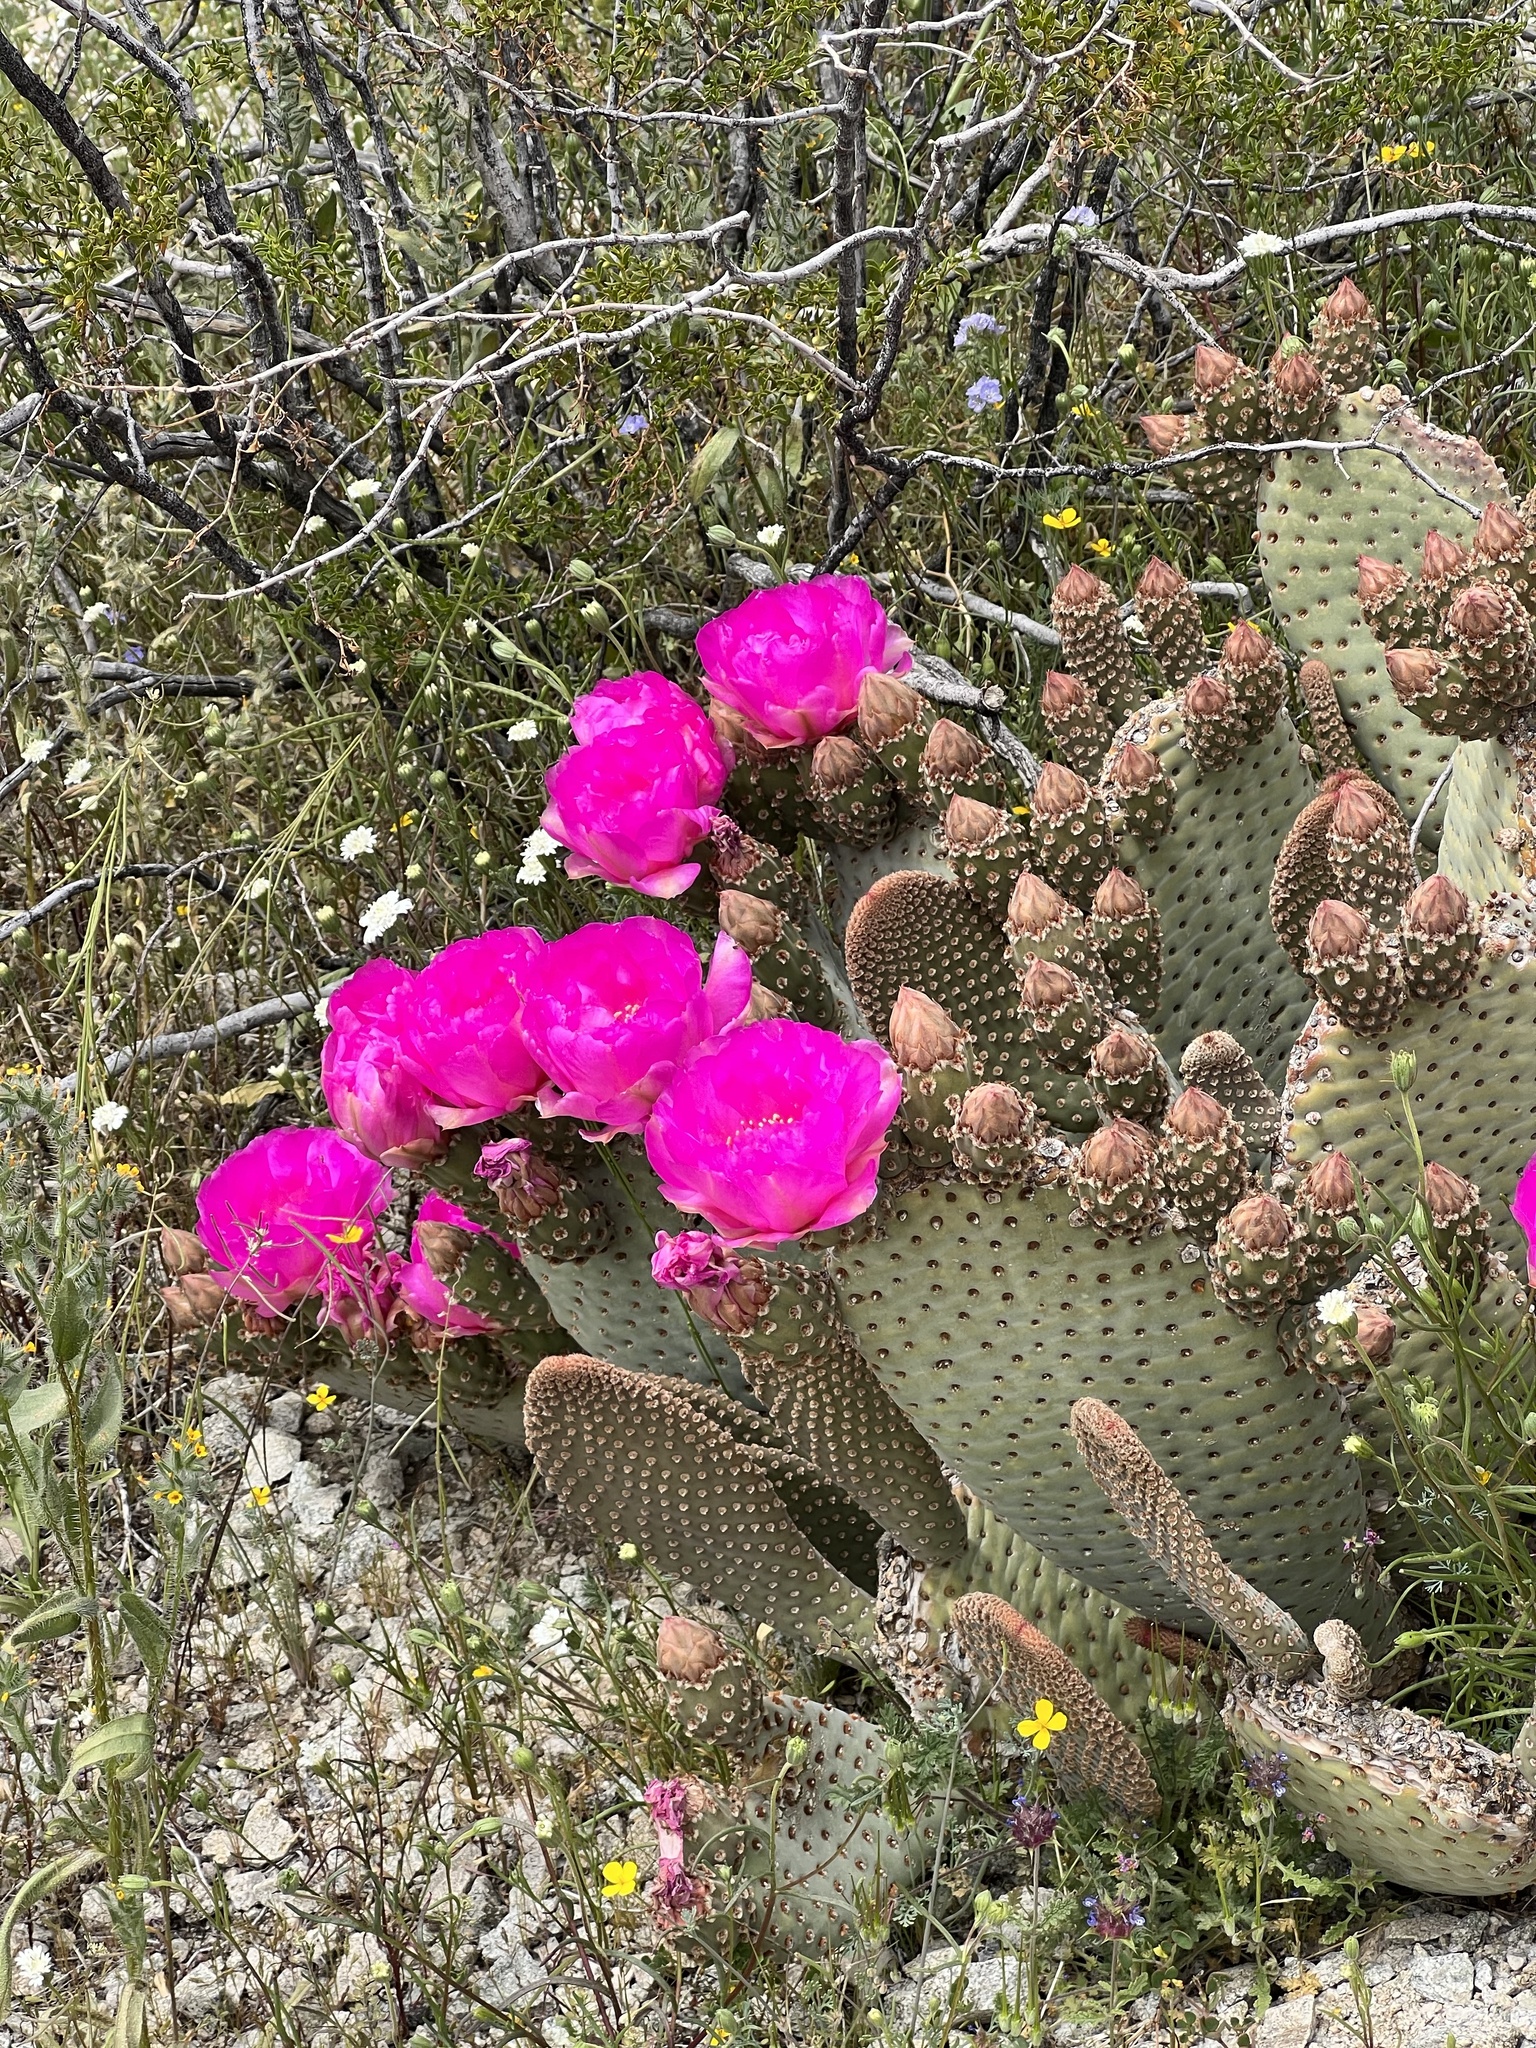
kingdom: Plantae
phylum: Tracheophyta
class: Magnoliopsida
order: Caryophyllales
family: Cactaceae
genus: Opuntia
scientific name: Opuntia basilaris
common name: Beavertail prickly-pear
